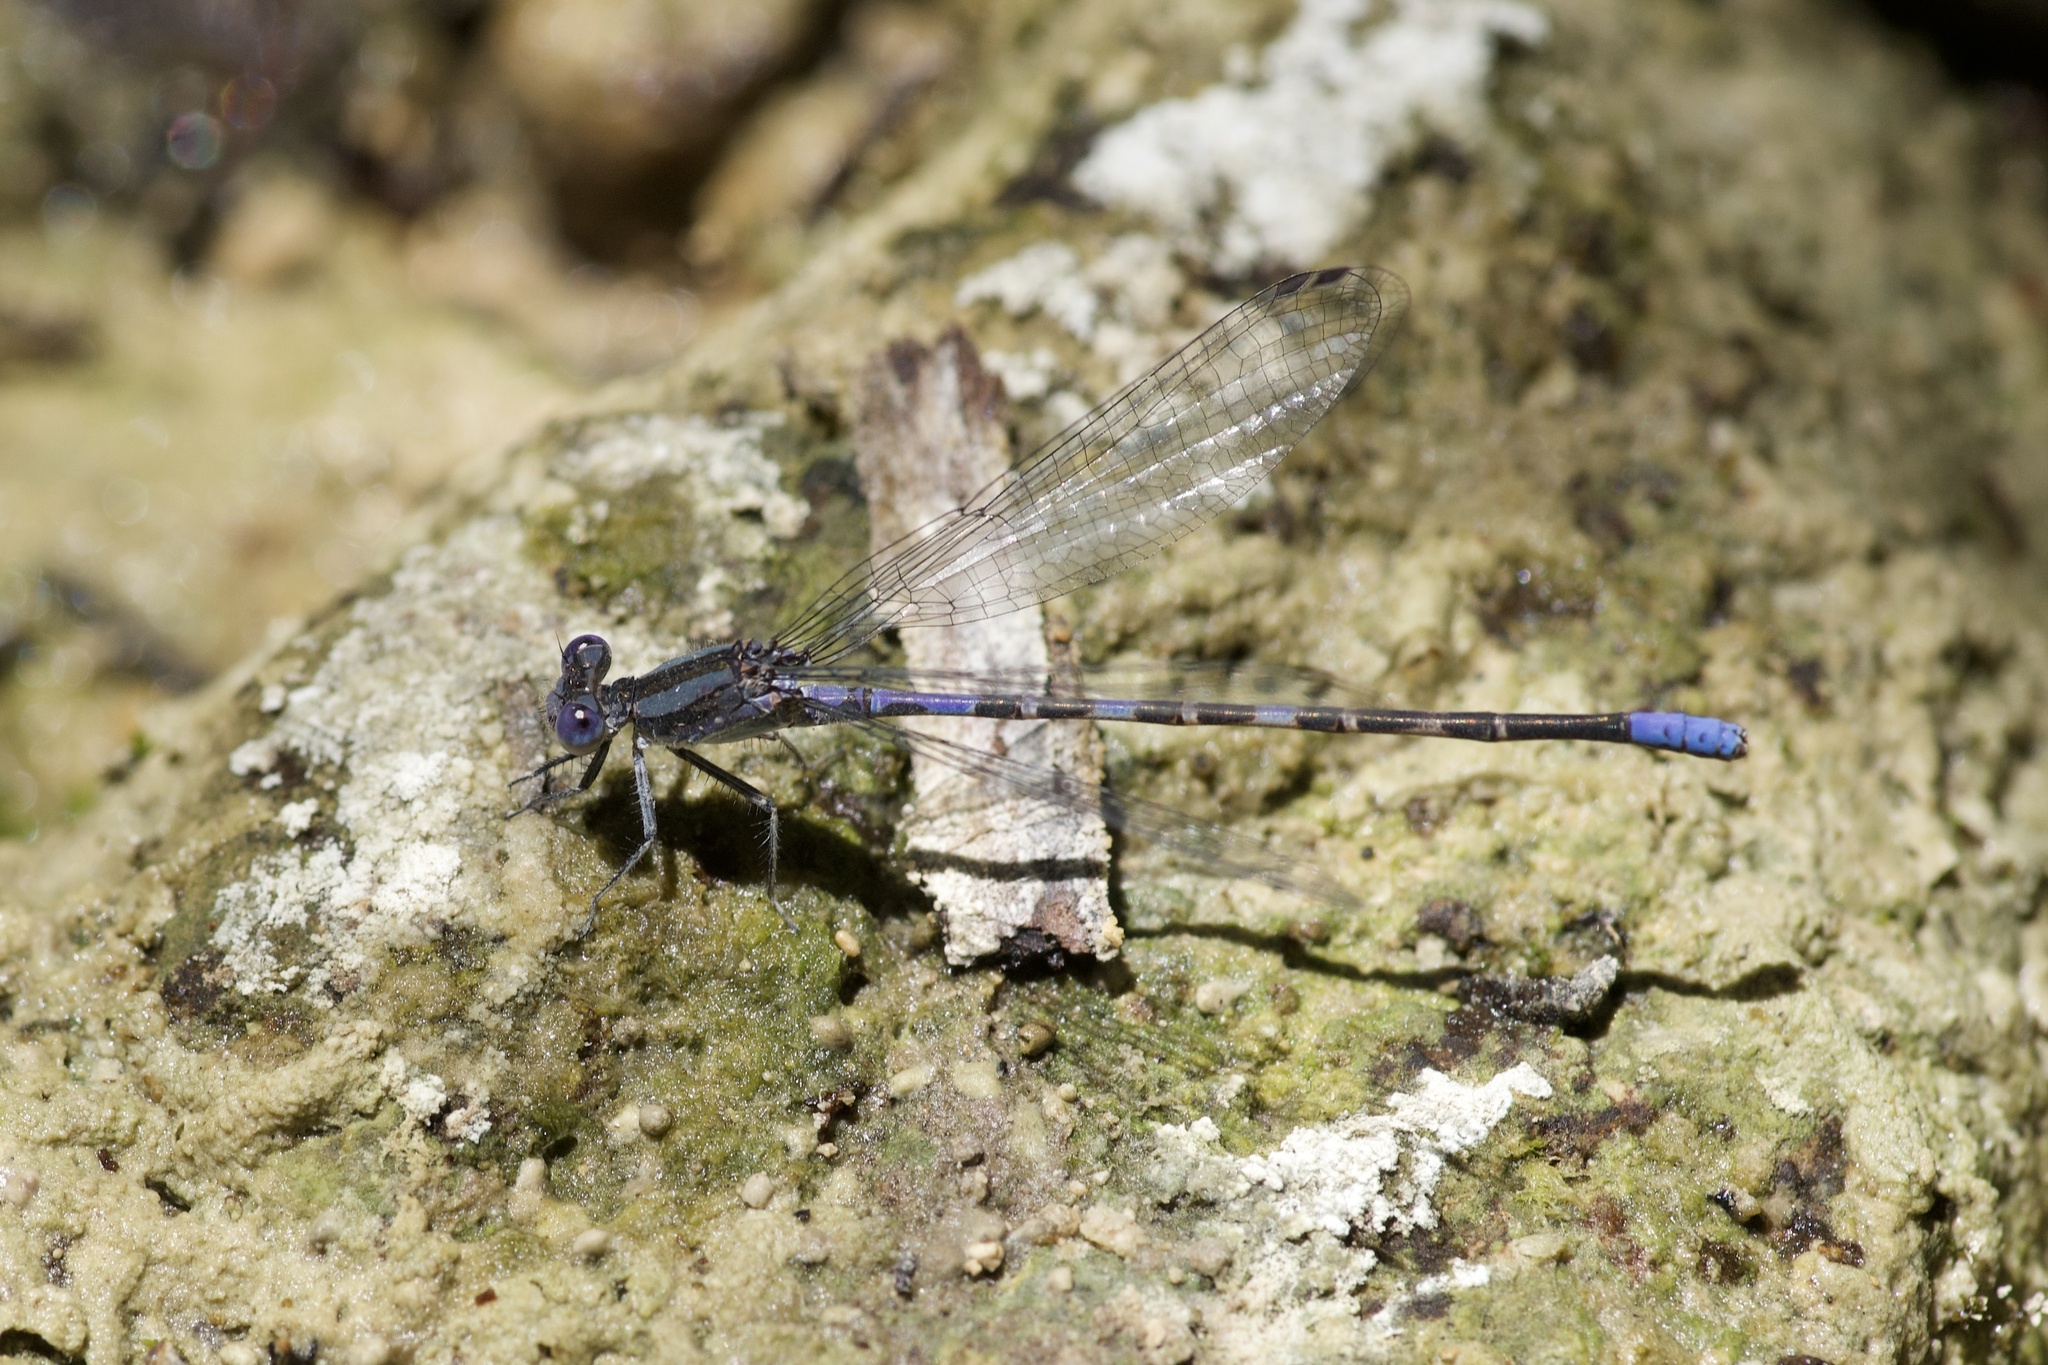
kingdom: Animalia
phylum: Arthropoda
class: Insecta
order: Odonata
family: Coenagrionidae
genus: Argia
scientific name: Argia immunda
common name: Kiowa dancer
